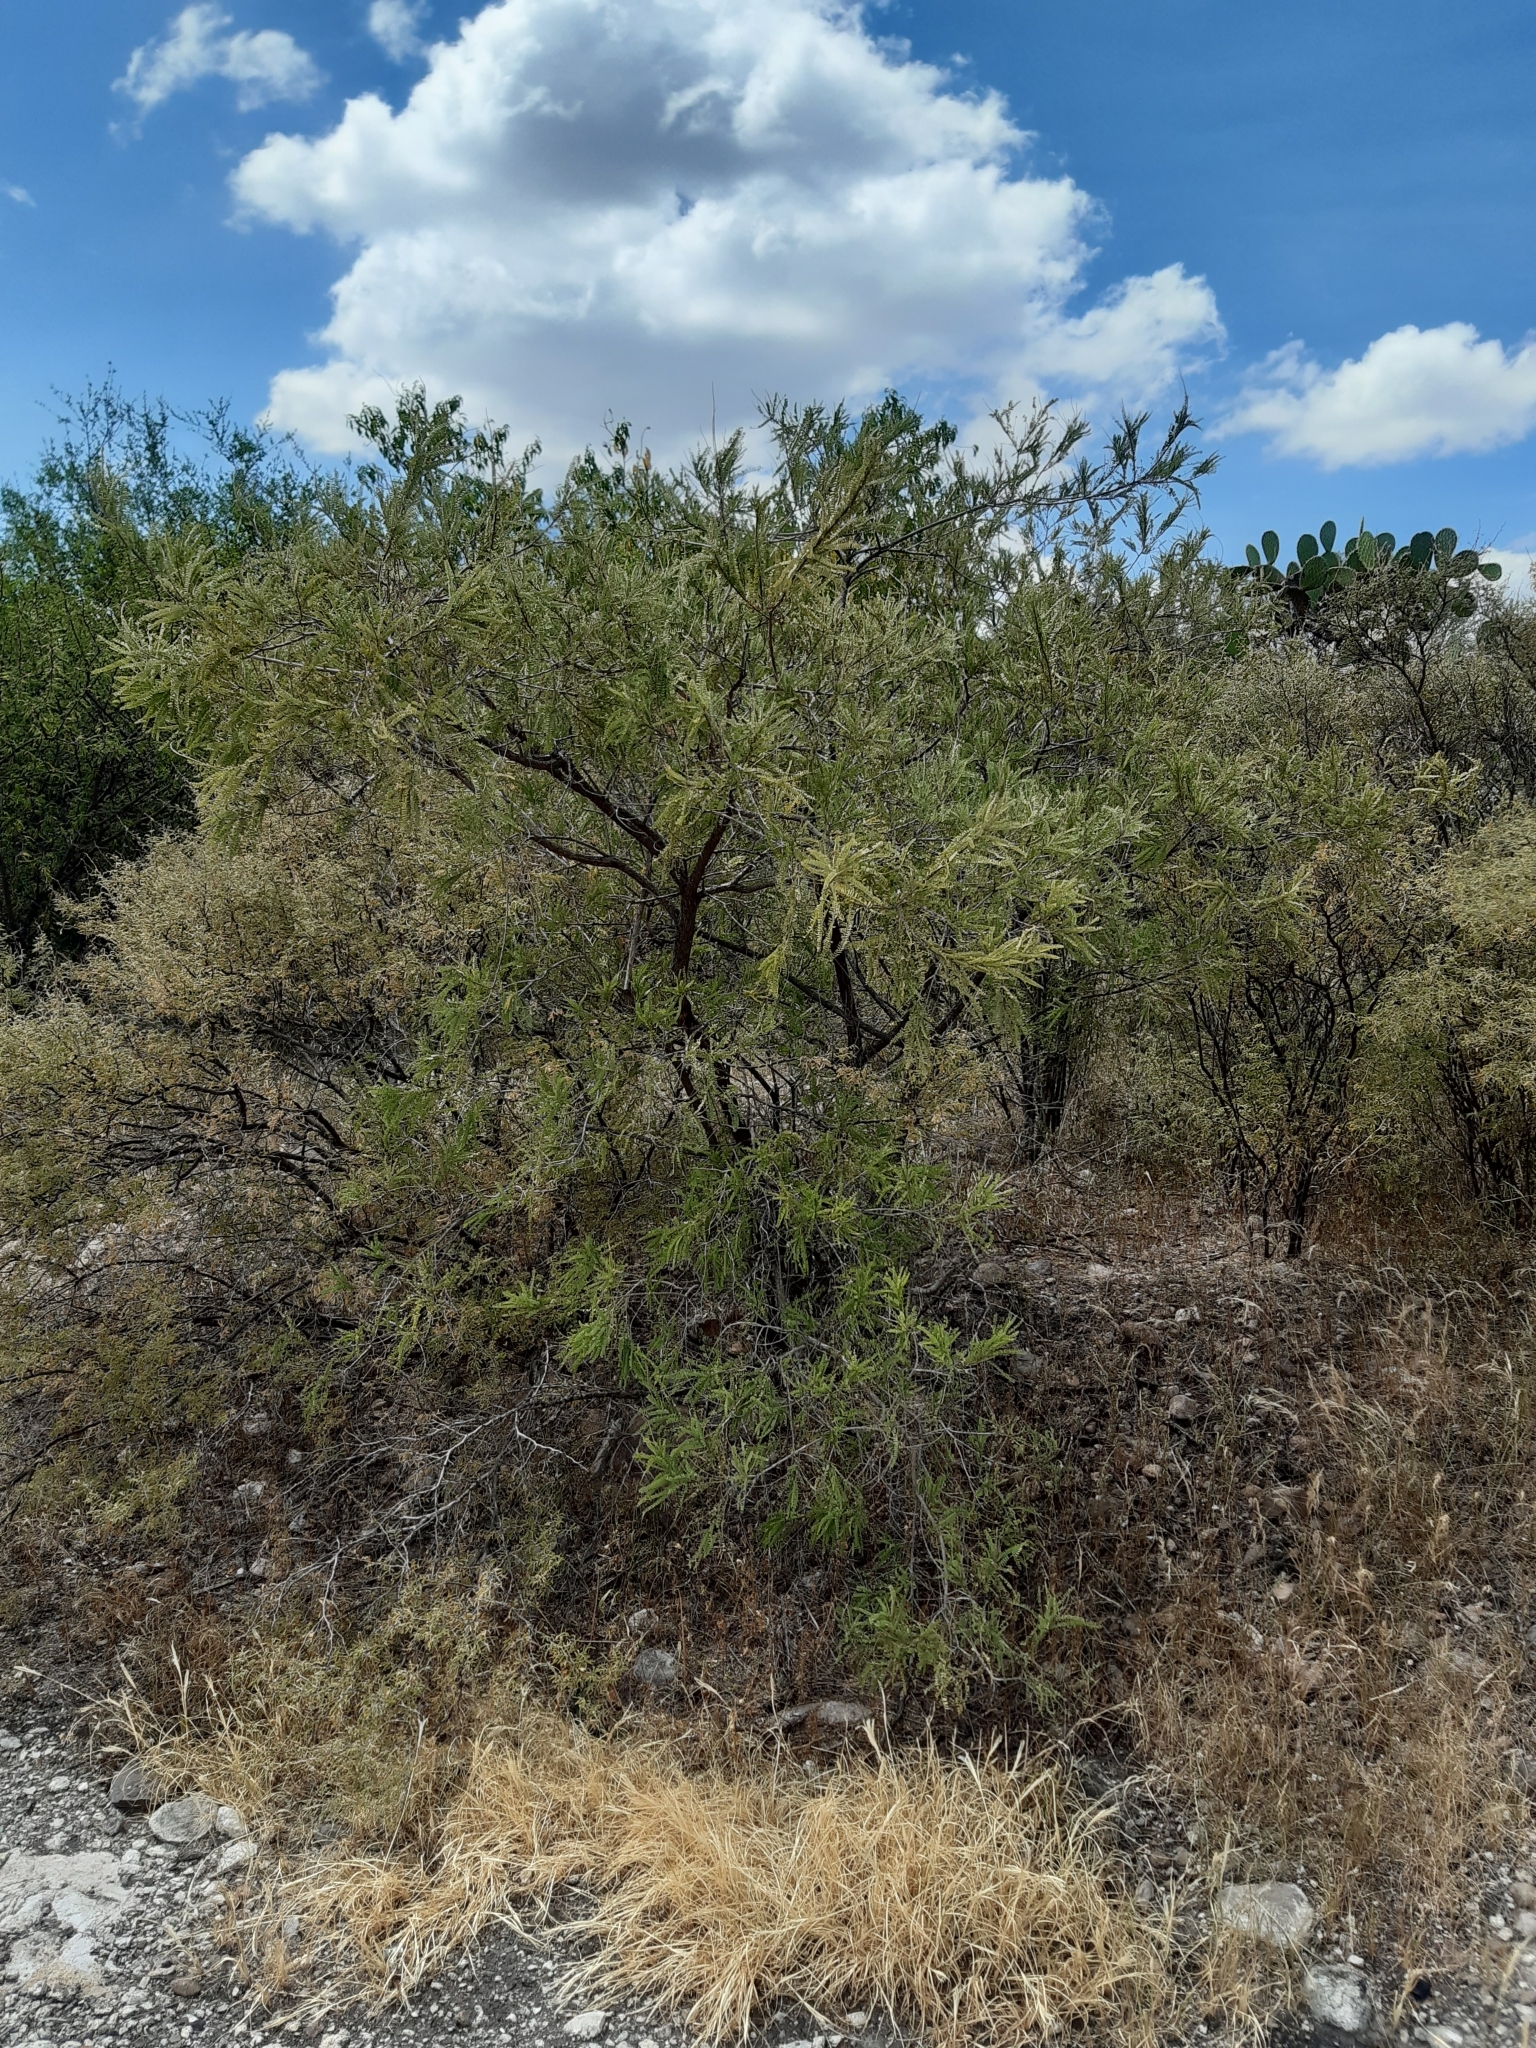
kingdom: Plantae
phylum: Tracheophyta
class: Magnoliopsida
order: Fabales
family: Fabaceae
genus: Eysenhardtia
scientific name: Eysenhardtia polystachya
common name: Kidneywood
